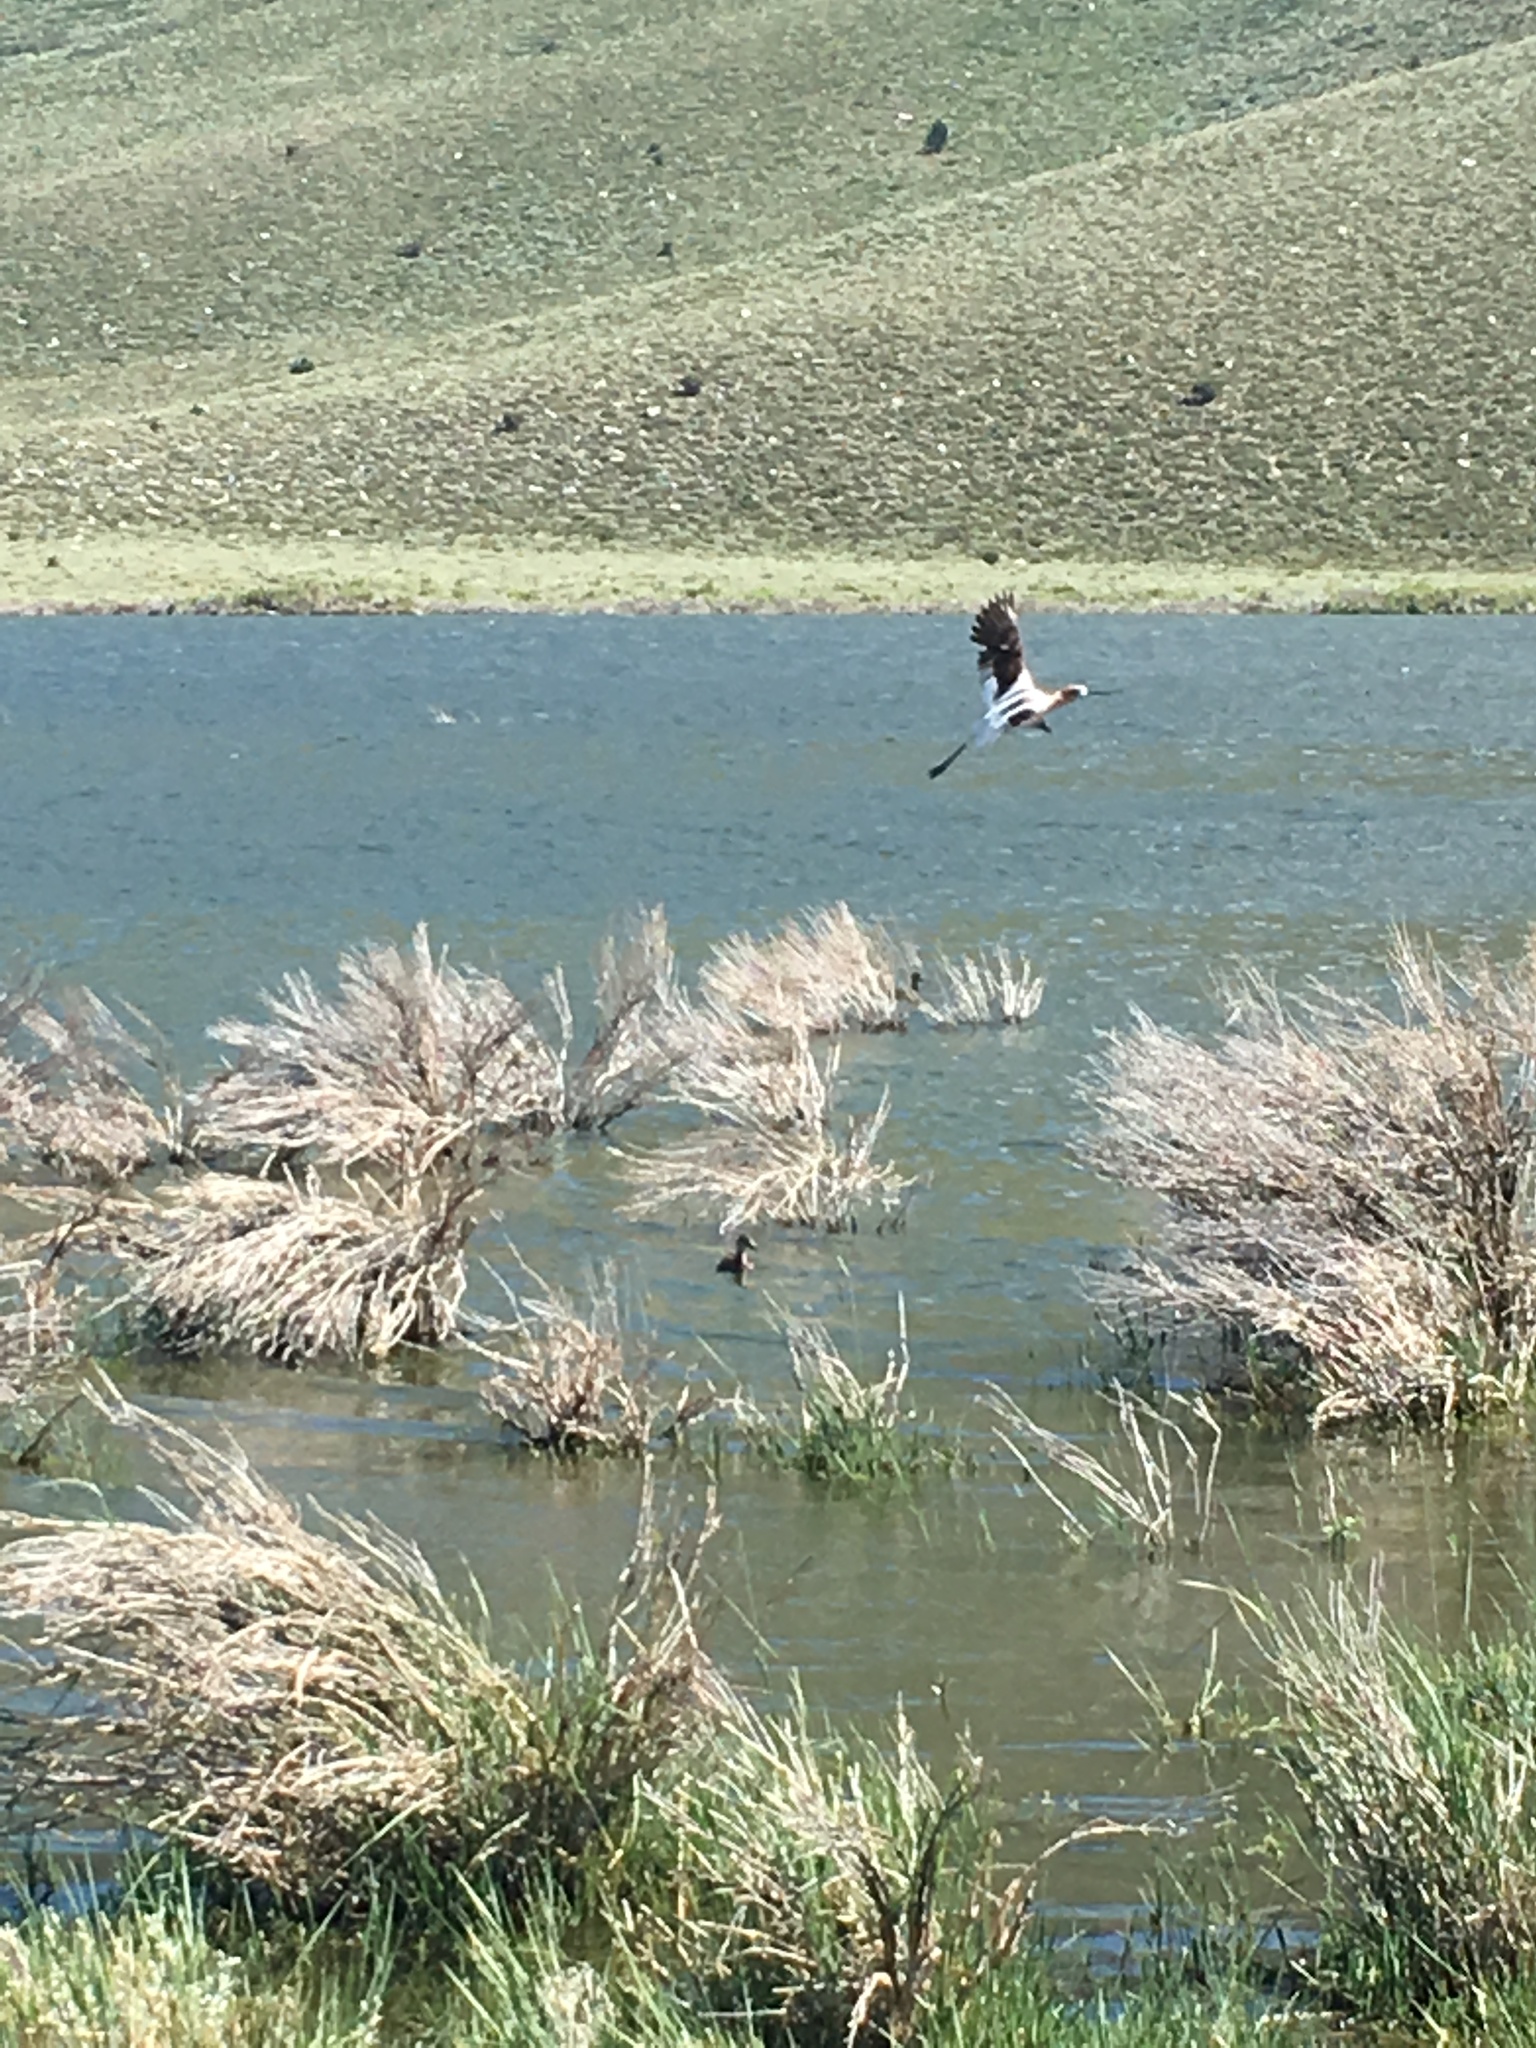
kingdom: Animalia
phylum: Chordata
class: Aves
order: Charadriiformes
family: Recurvirostridae
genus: Recurvirostra
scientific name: Recurvirostra americana
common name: American avocet
